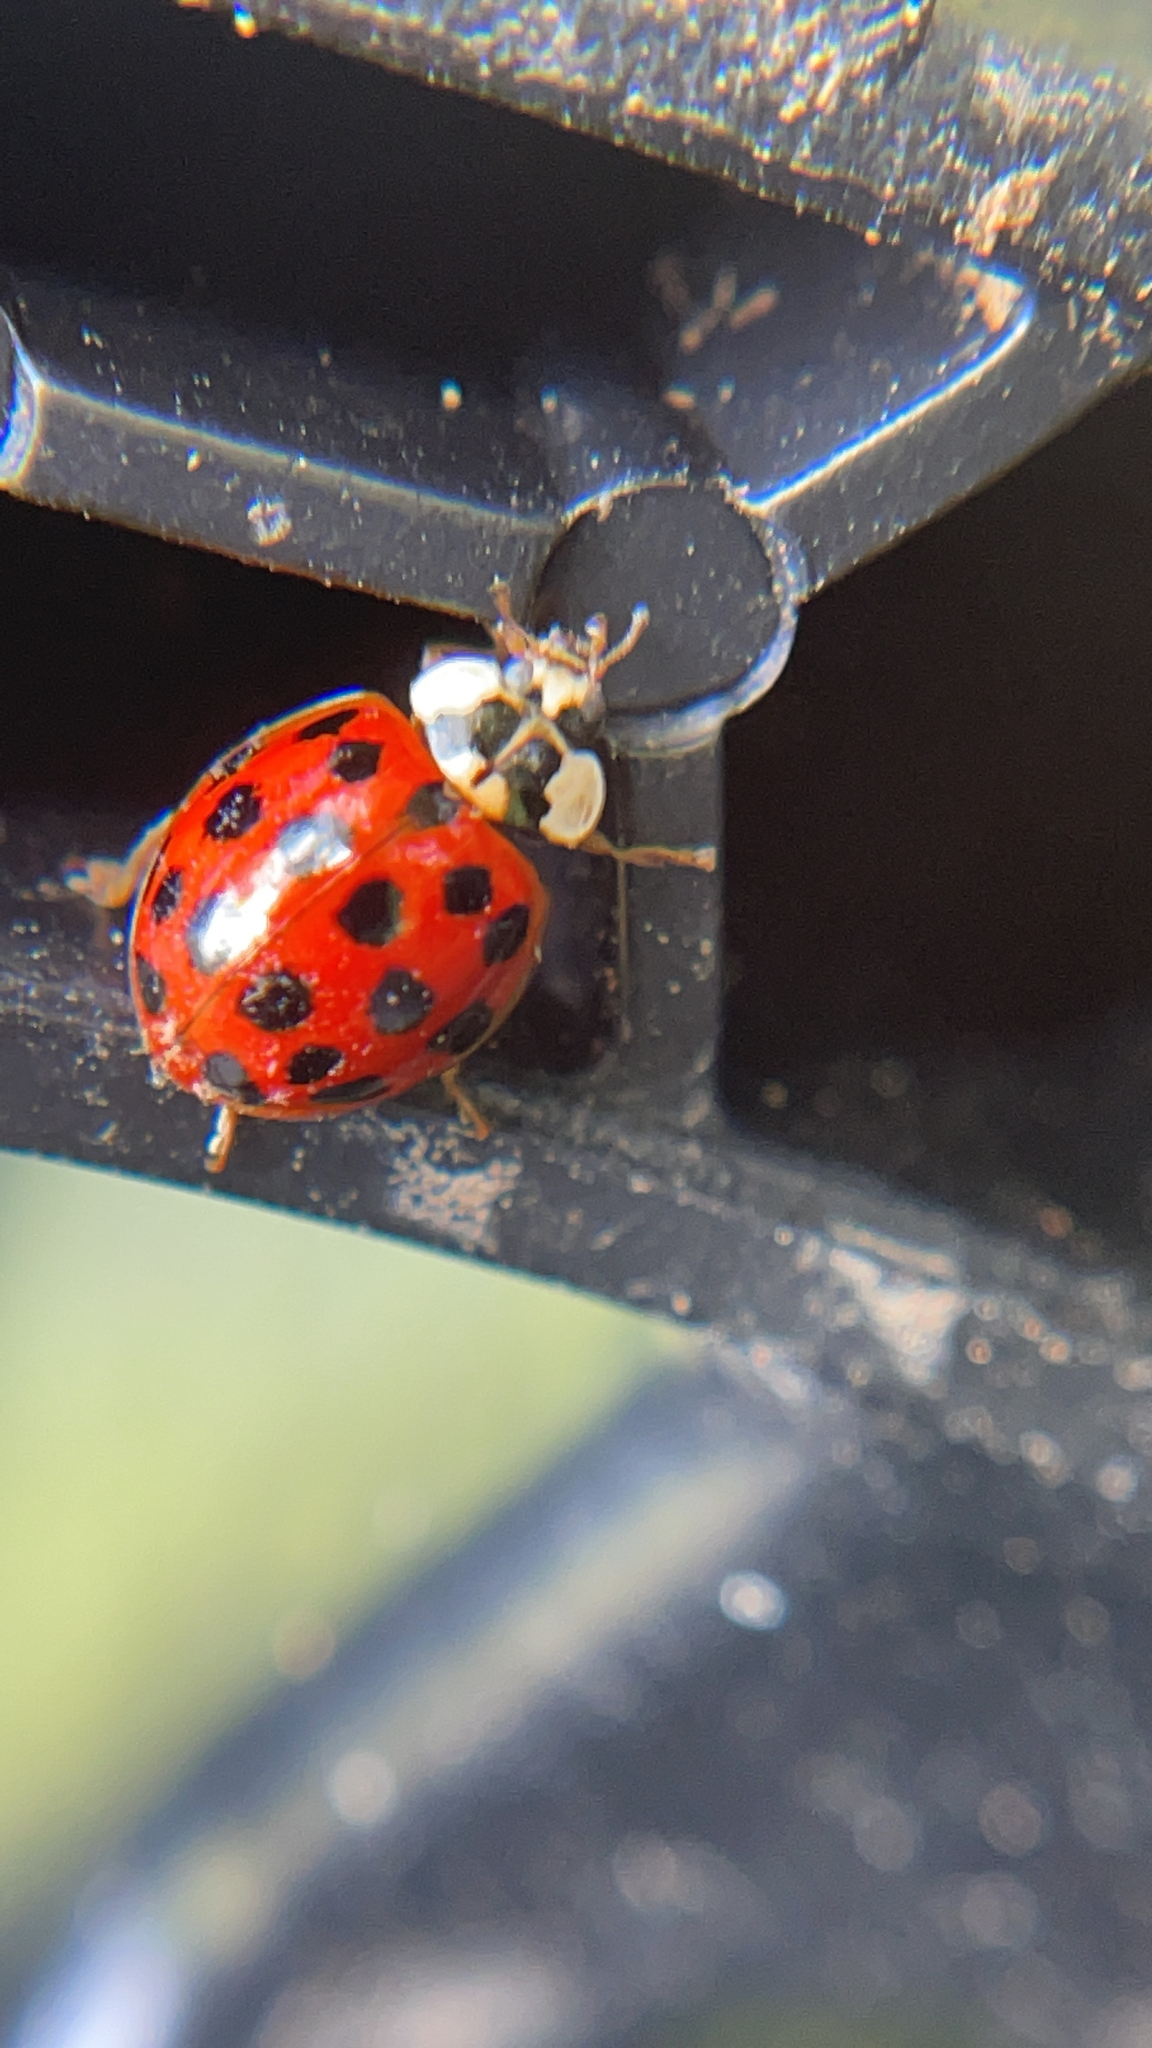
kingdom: Animalia
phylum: Arthropoda
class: Insecta
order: Coleoptera
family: Coccinellidae
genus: Harmonia
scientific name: Harmonia axyridis
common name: Harlequin ladybird
